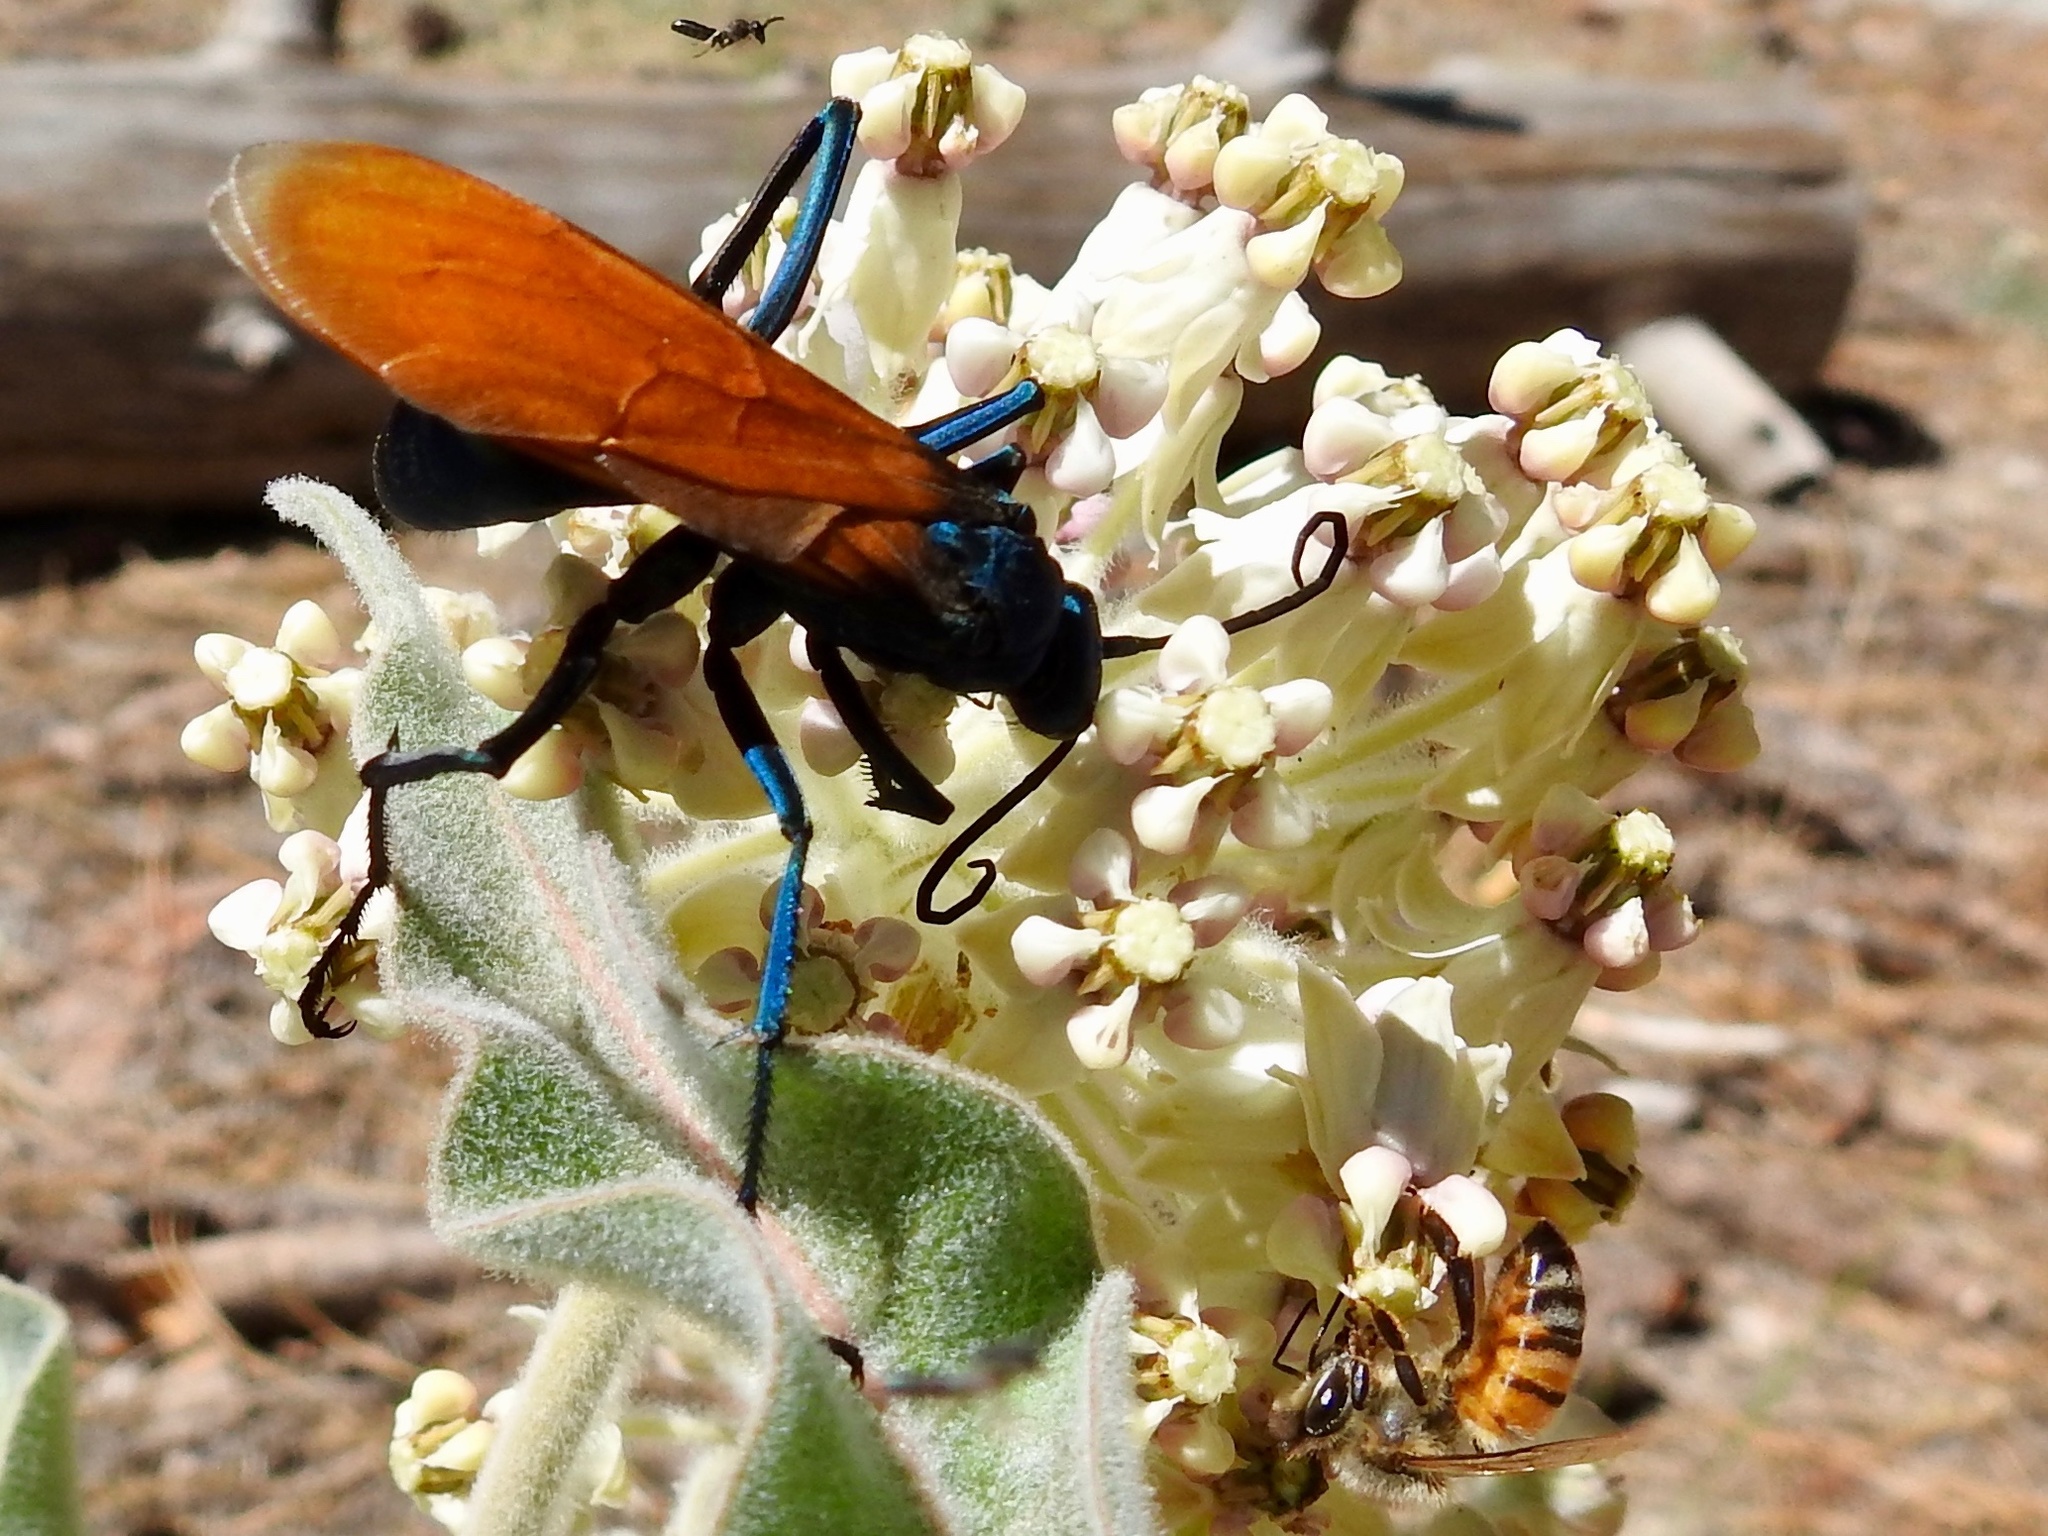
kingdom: Animalia
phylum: Arthropoda
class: Insecta
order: Hymenoptera
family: Apidae
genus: Apis
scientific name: Apis mellifera
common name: Honey bee
